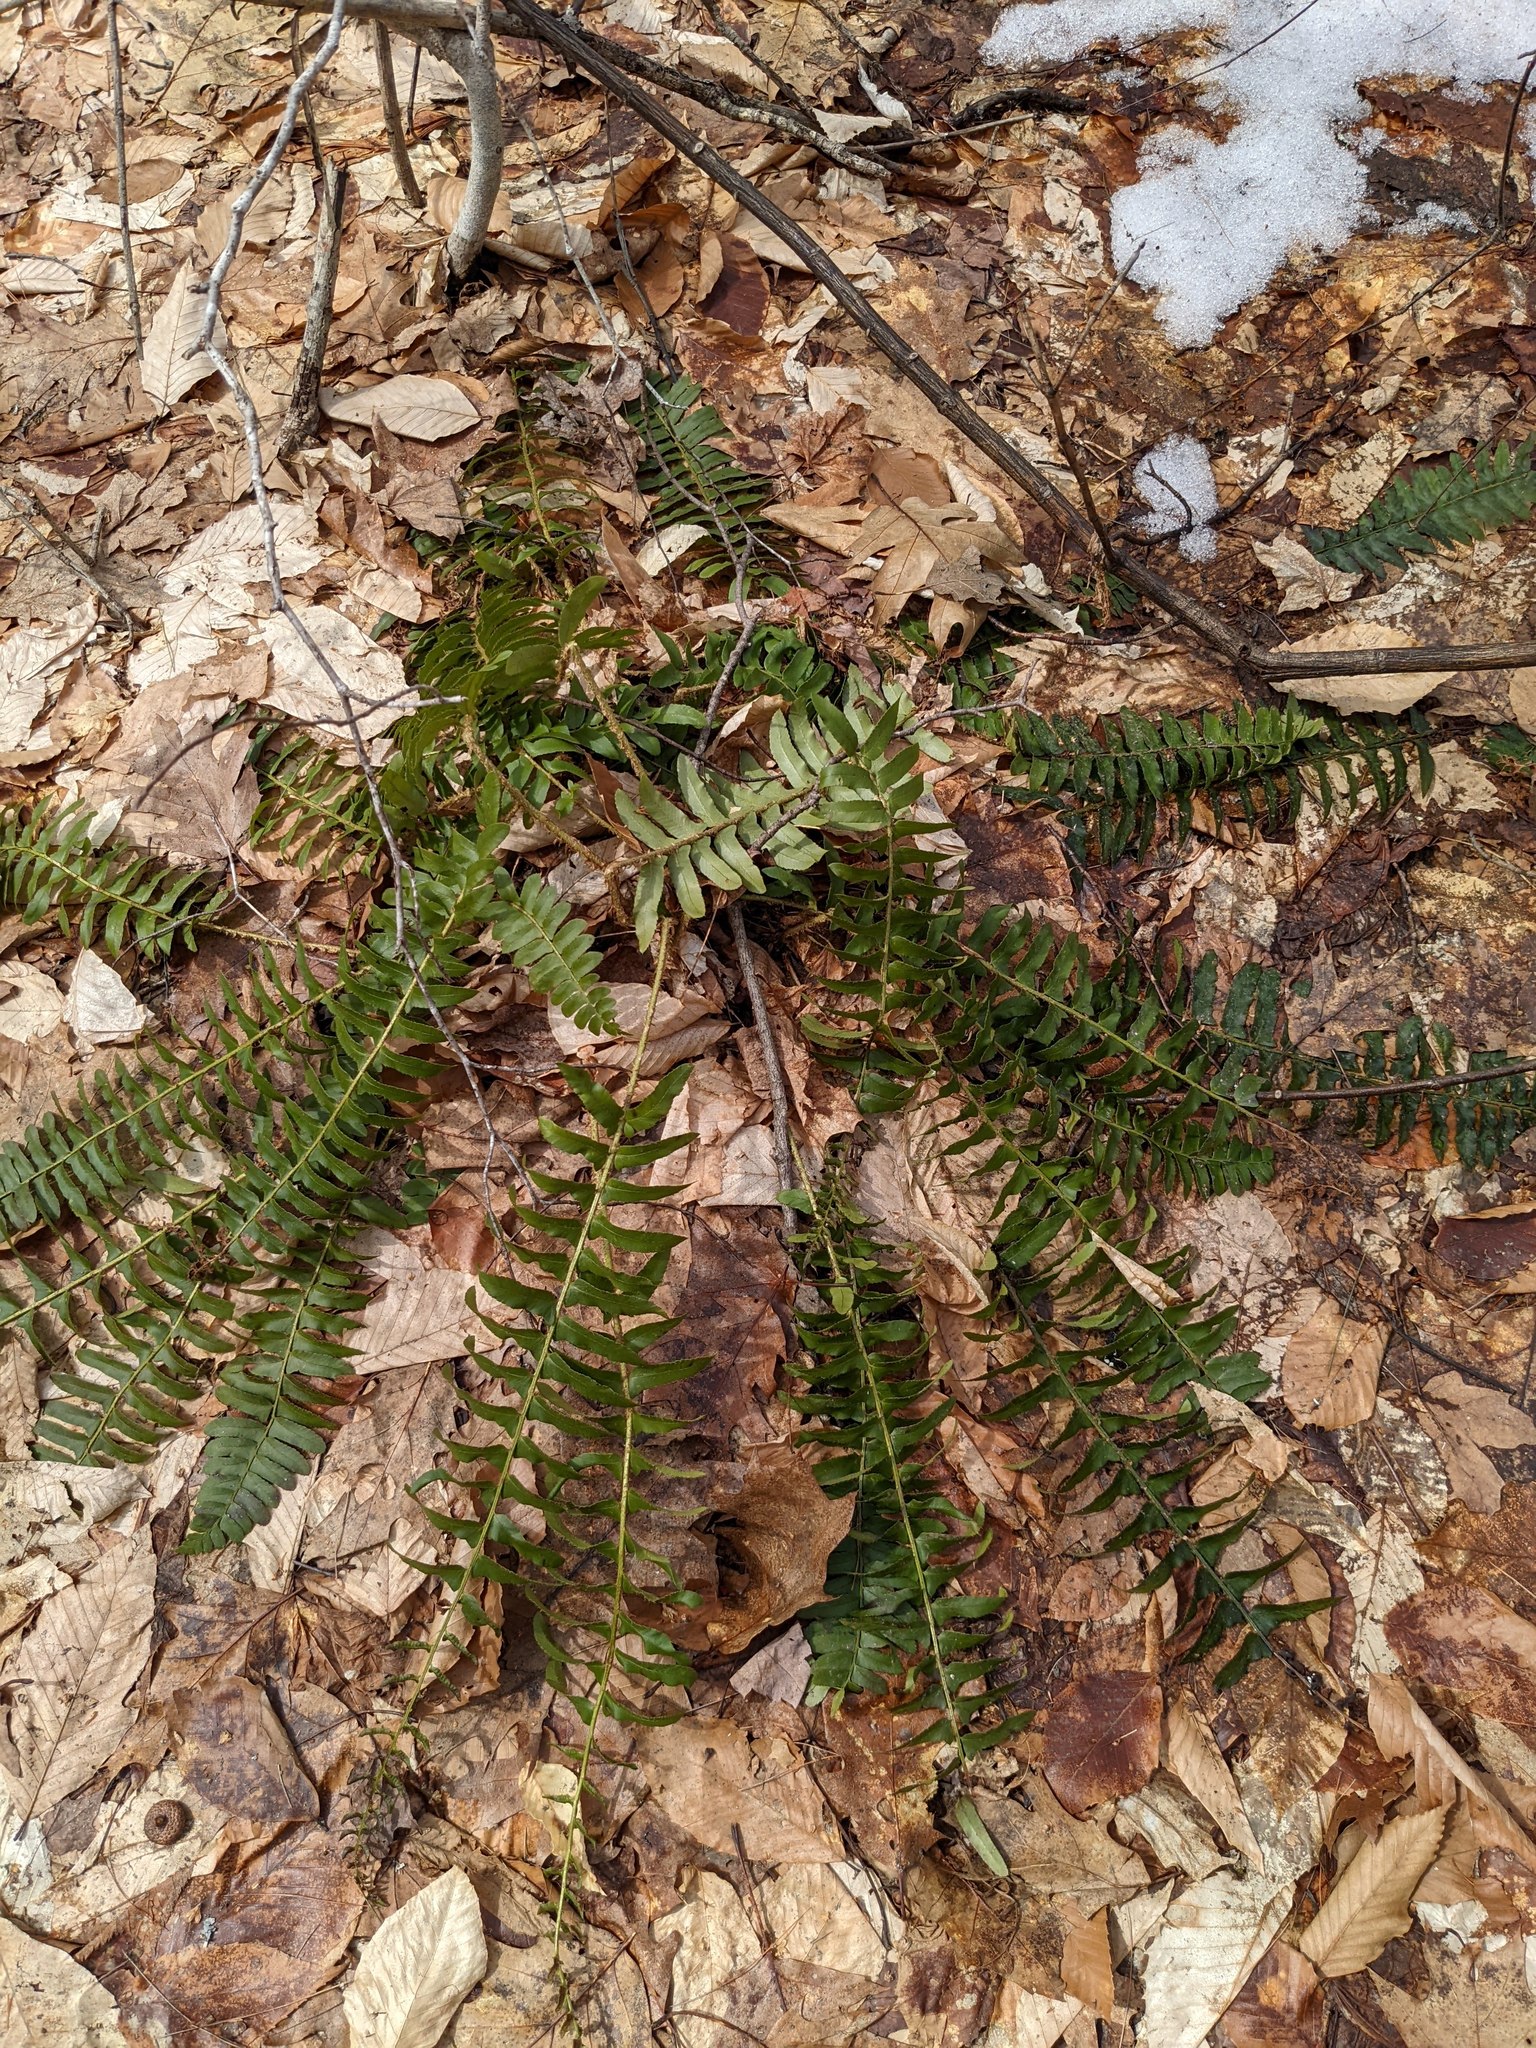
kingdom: Plantae
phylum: Tracheophyta
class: Polypodiopsida
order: Polypodiales
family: Dryopteridaceae
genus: Polystichum
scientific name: Polystichum acrostichoides
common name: Christmas fern
